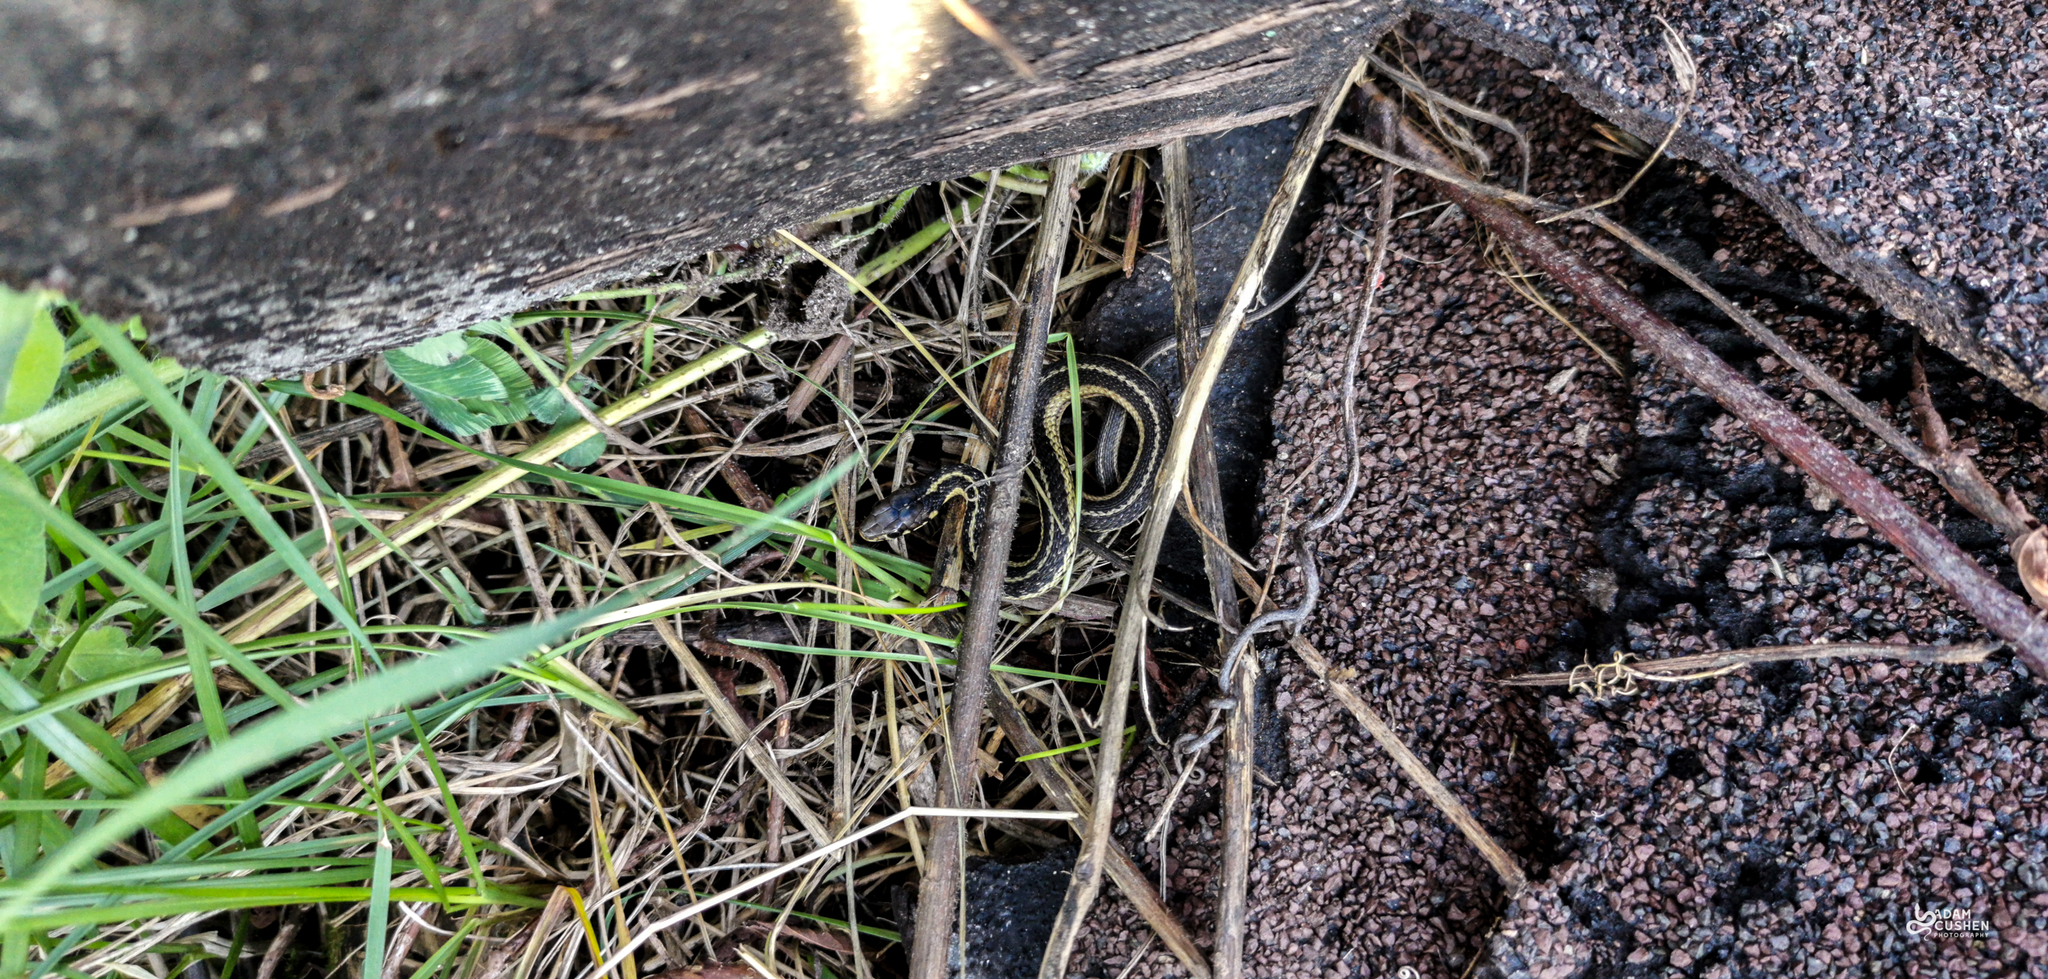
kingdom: Animalia
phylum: Chordata
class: Squamata
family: Colubridae
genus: Thamnophis
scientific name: Thamnophis sirtalis
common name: Common garter snake
